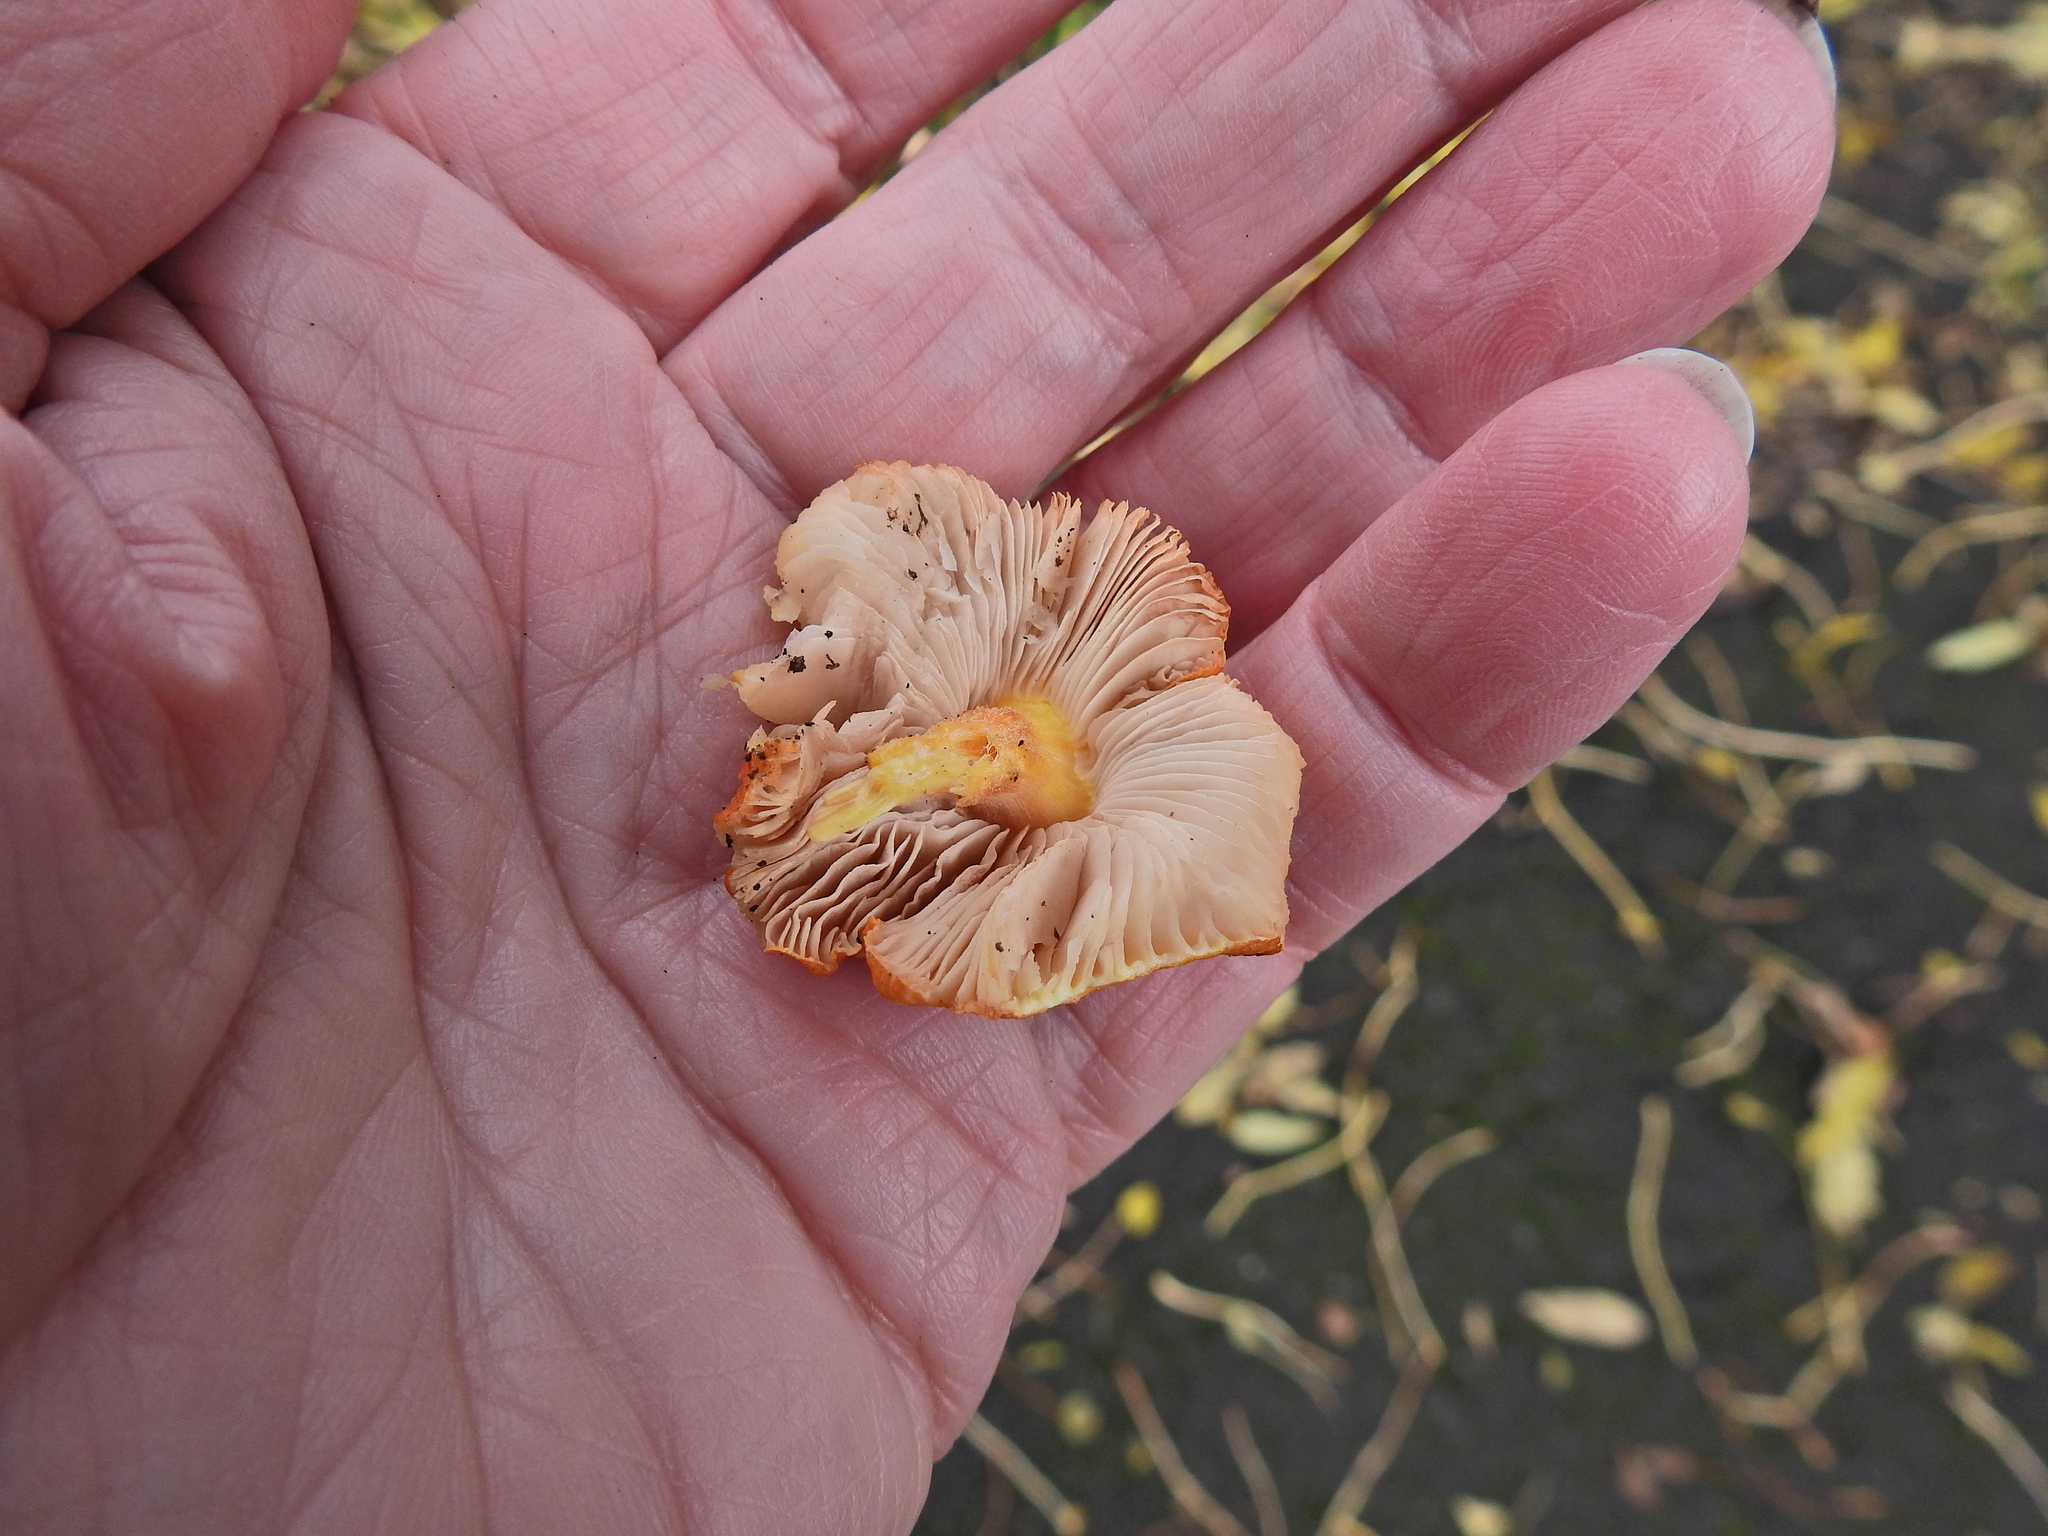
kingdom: Fungi
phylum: Basidiomycota
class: Agaricomycetes
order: Agaricales
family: Pluteaceae
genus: Pluteus
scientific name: Pluteus aurantiorugosus
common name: Flame shield
